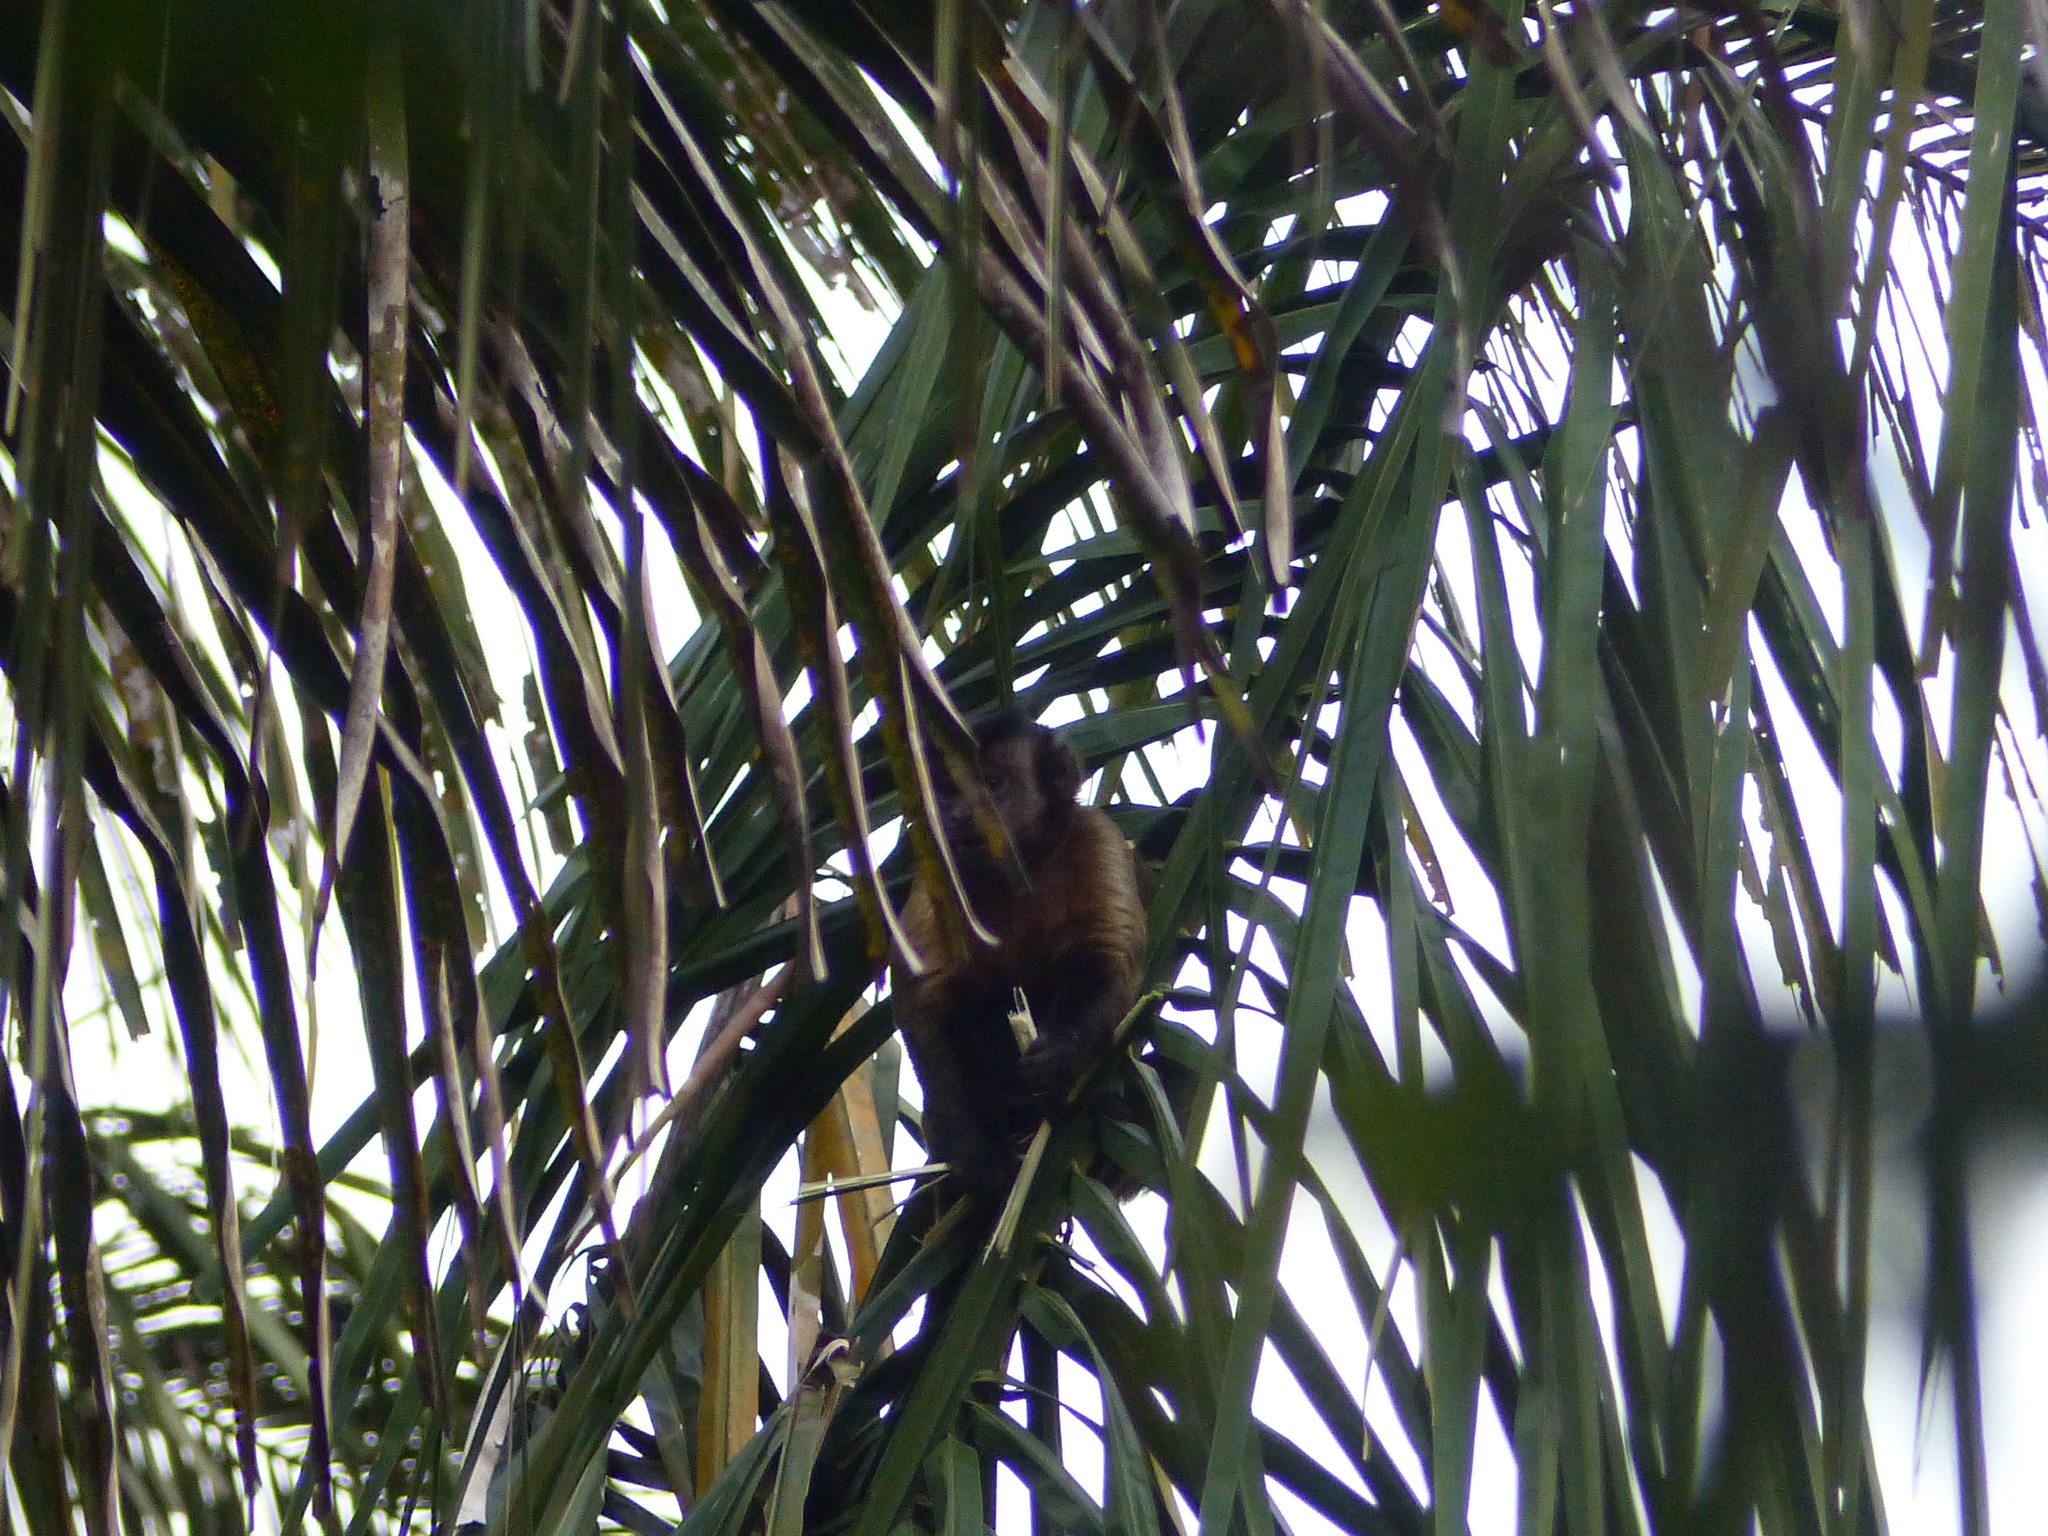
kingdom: Animalia
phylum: Chordata
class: Mammalia
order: Primates
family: Cebidae
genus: Sapajus
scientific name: Sapajus apella
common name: Tufted capuchin
